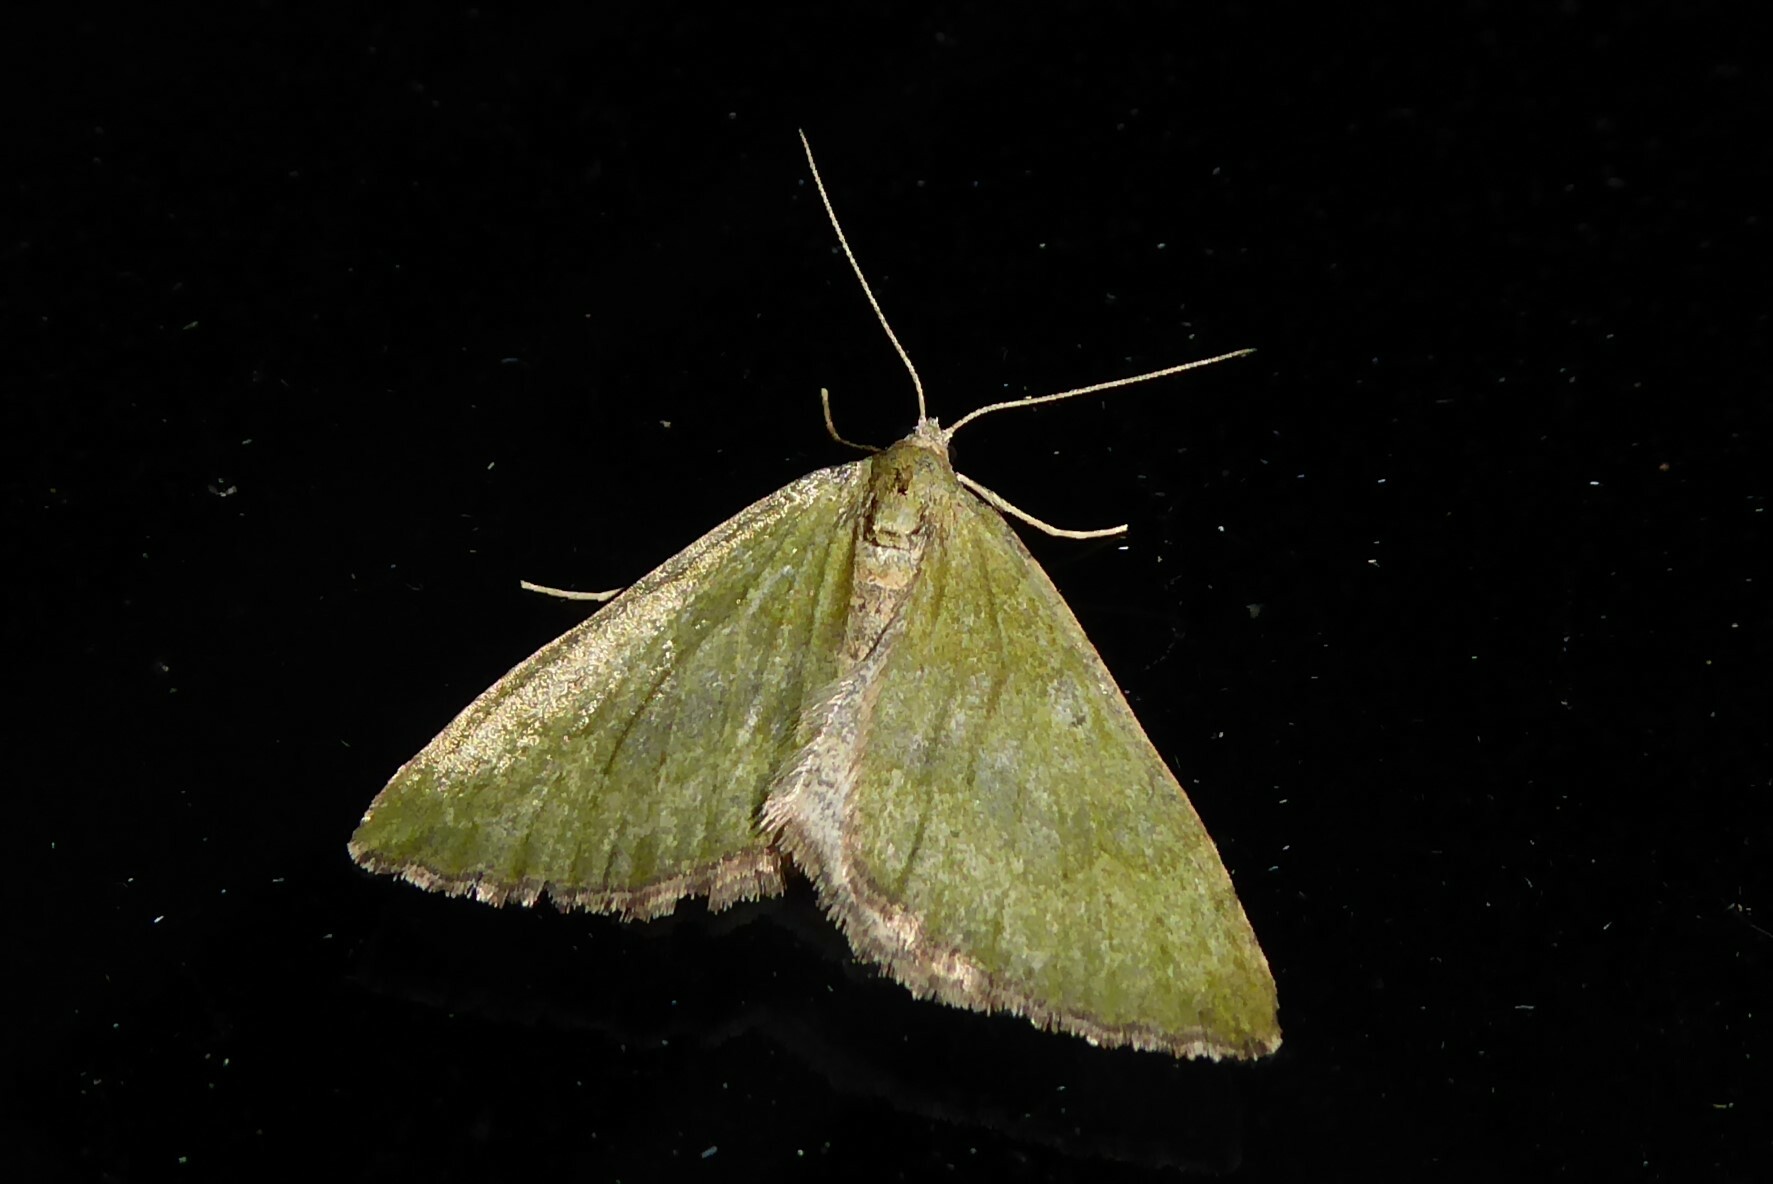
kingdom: Animalia
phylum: Arthropoda
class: Insecta
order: Lepidoptera
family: Geometridae
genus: Epyaxa
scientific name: Epyaxa rosearia
